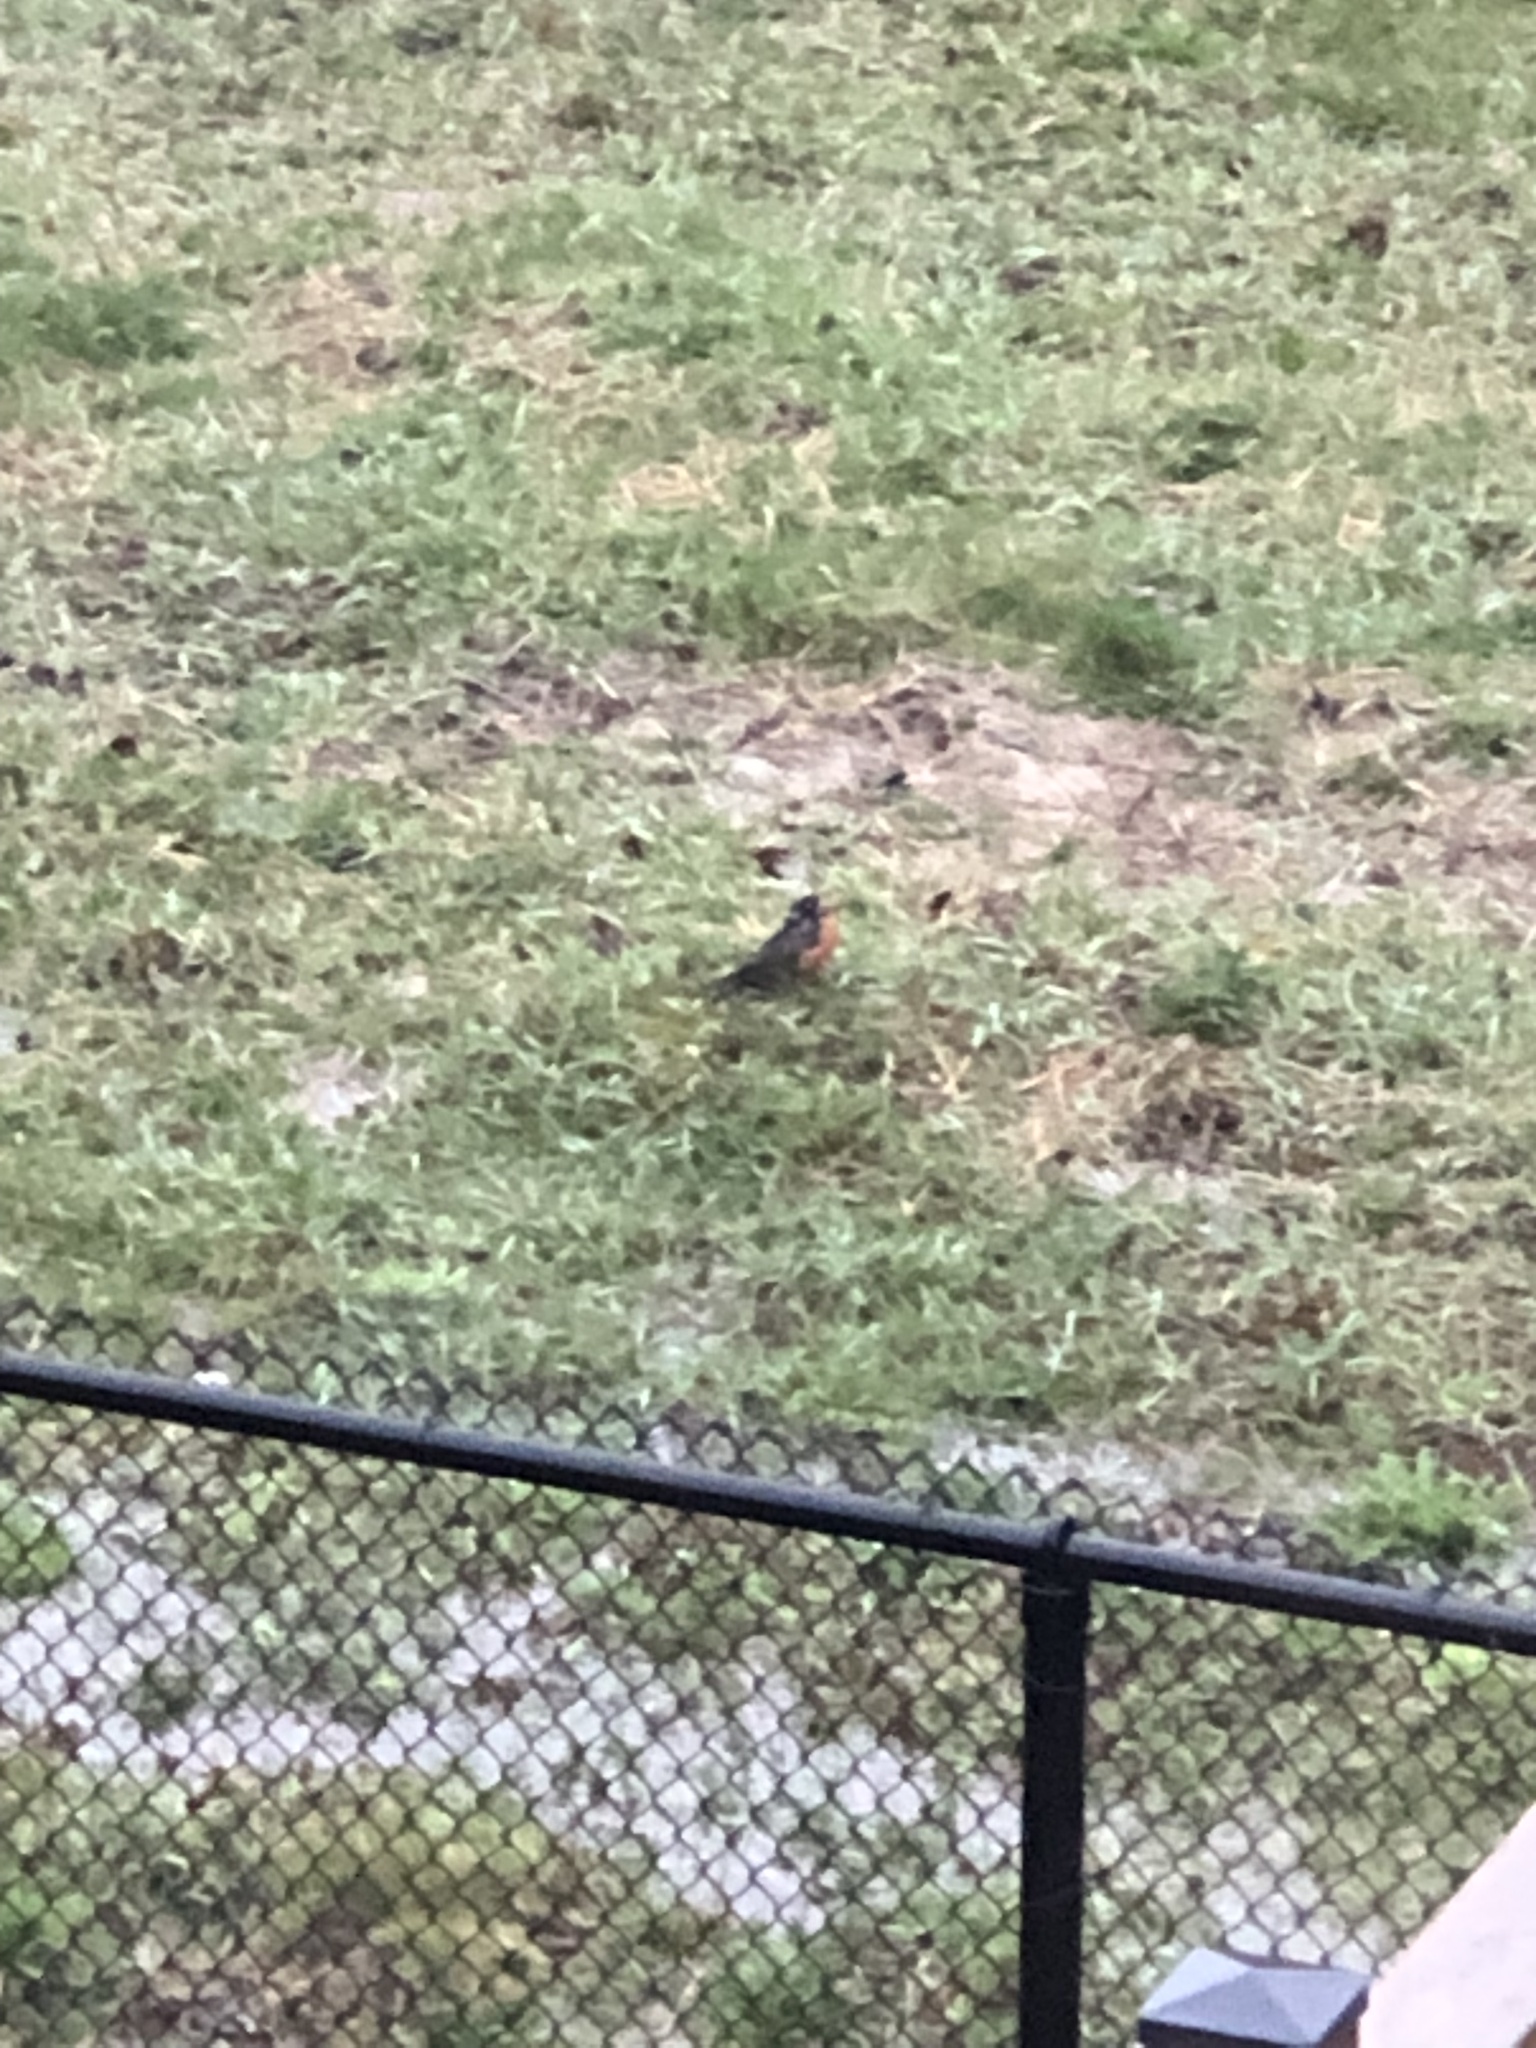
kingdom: Animalia
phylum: Chordata
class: Aves
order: Passeriformes
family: Turdidae
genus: Turdus
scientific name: Turdus migratorius
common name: American robin
